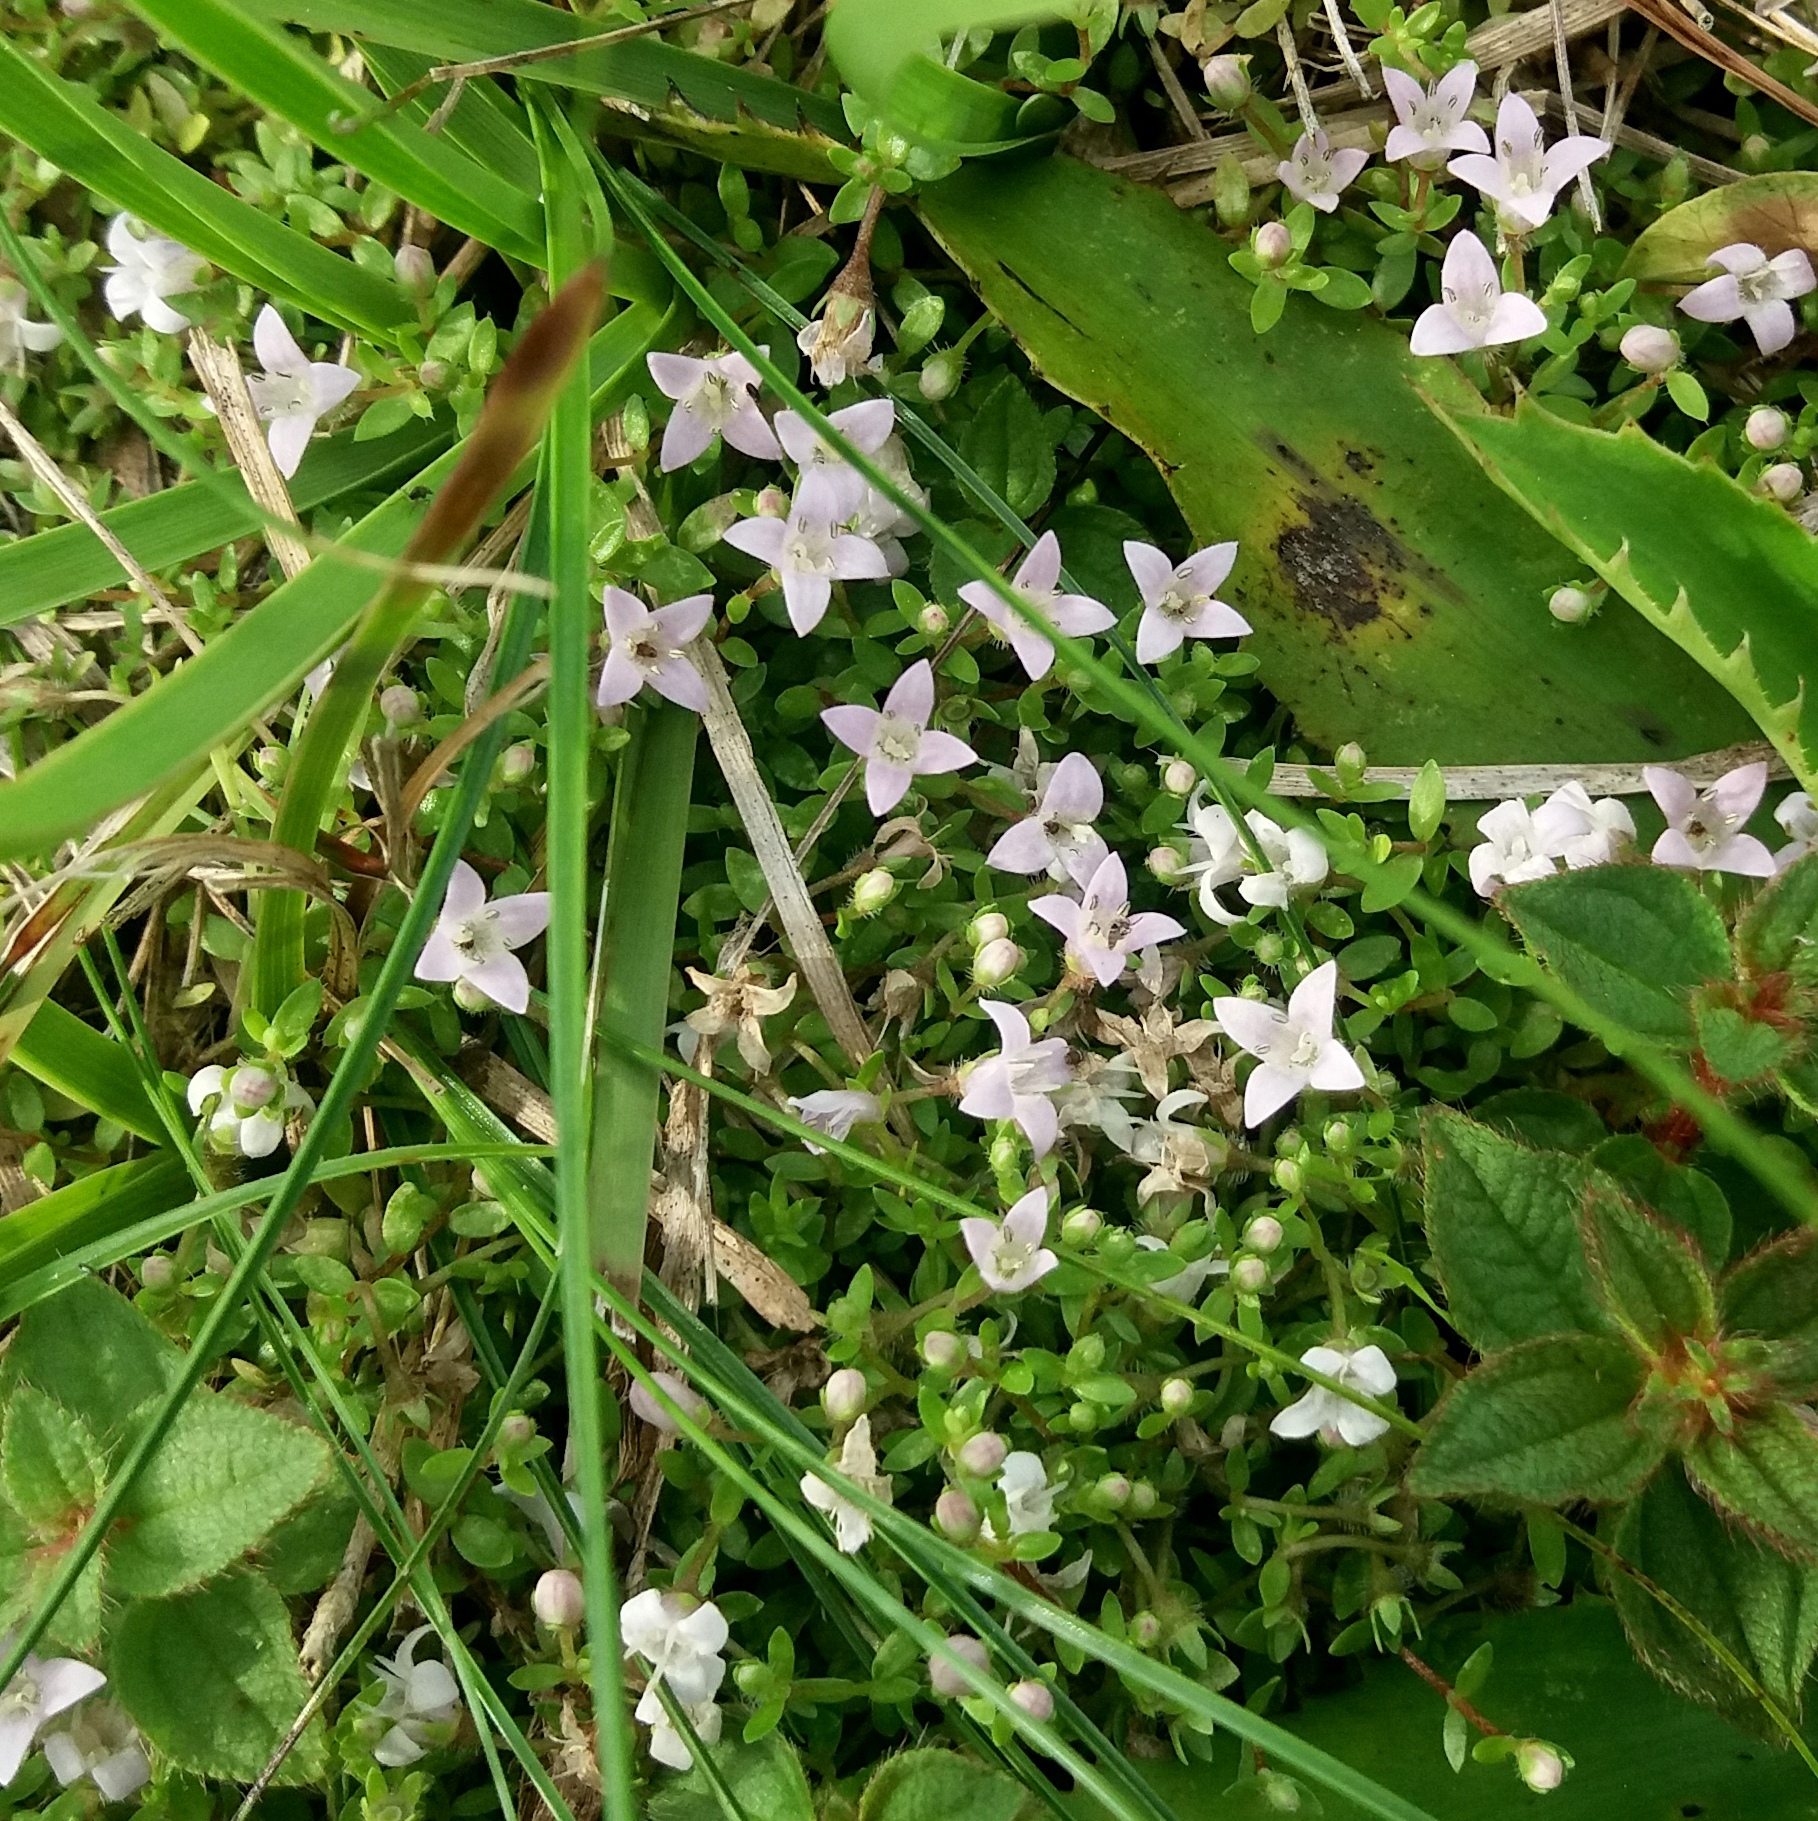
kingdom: Plantae
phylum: Tracheophyta
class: Magnoliopsida
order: Gentianales
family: Rubiaceae
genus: Oldenlandia
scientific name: Oldenlandia salzmannii
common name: Salzmann's mille graines
